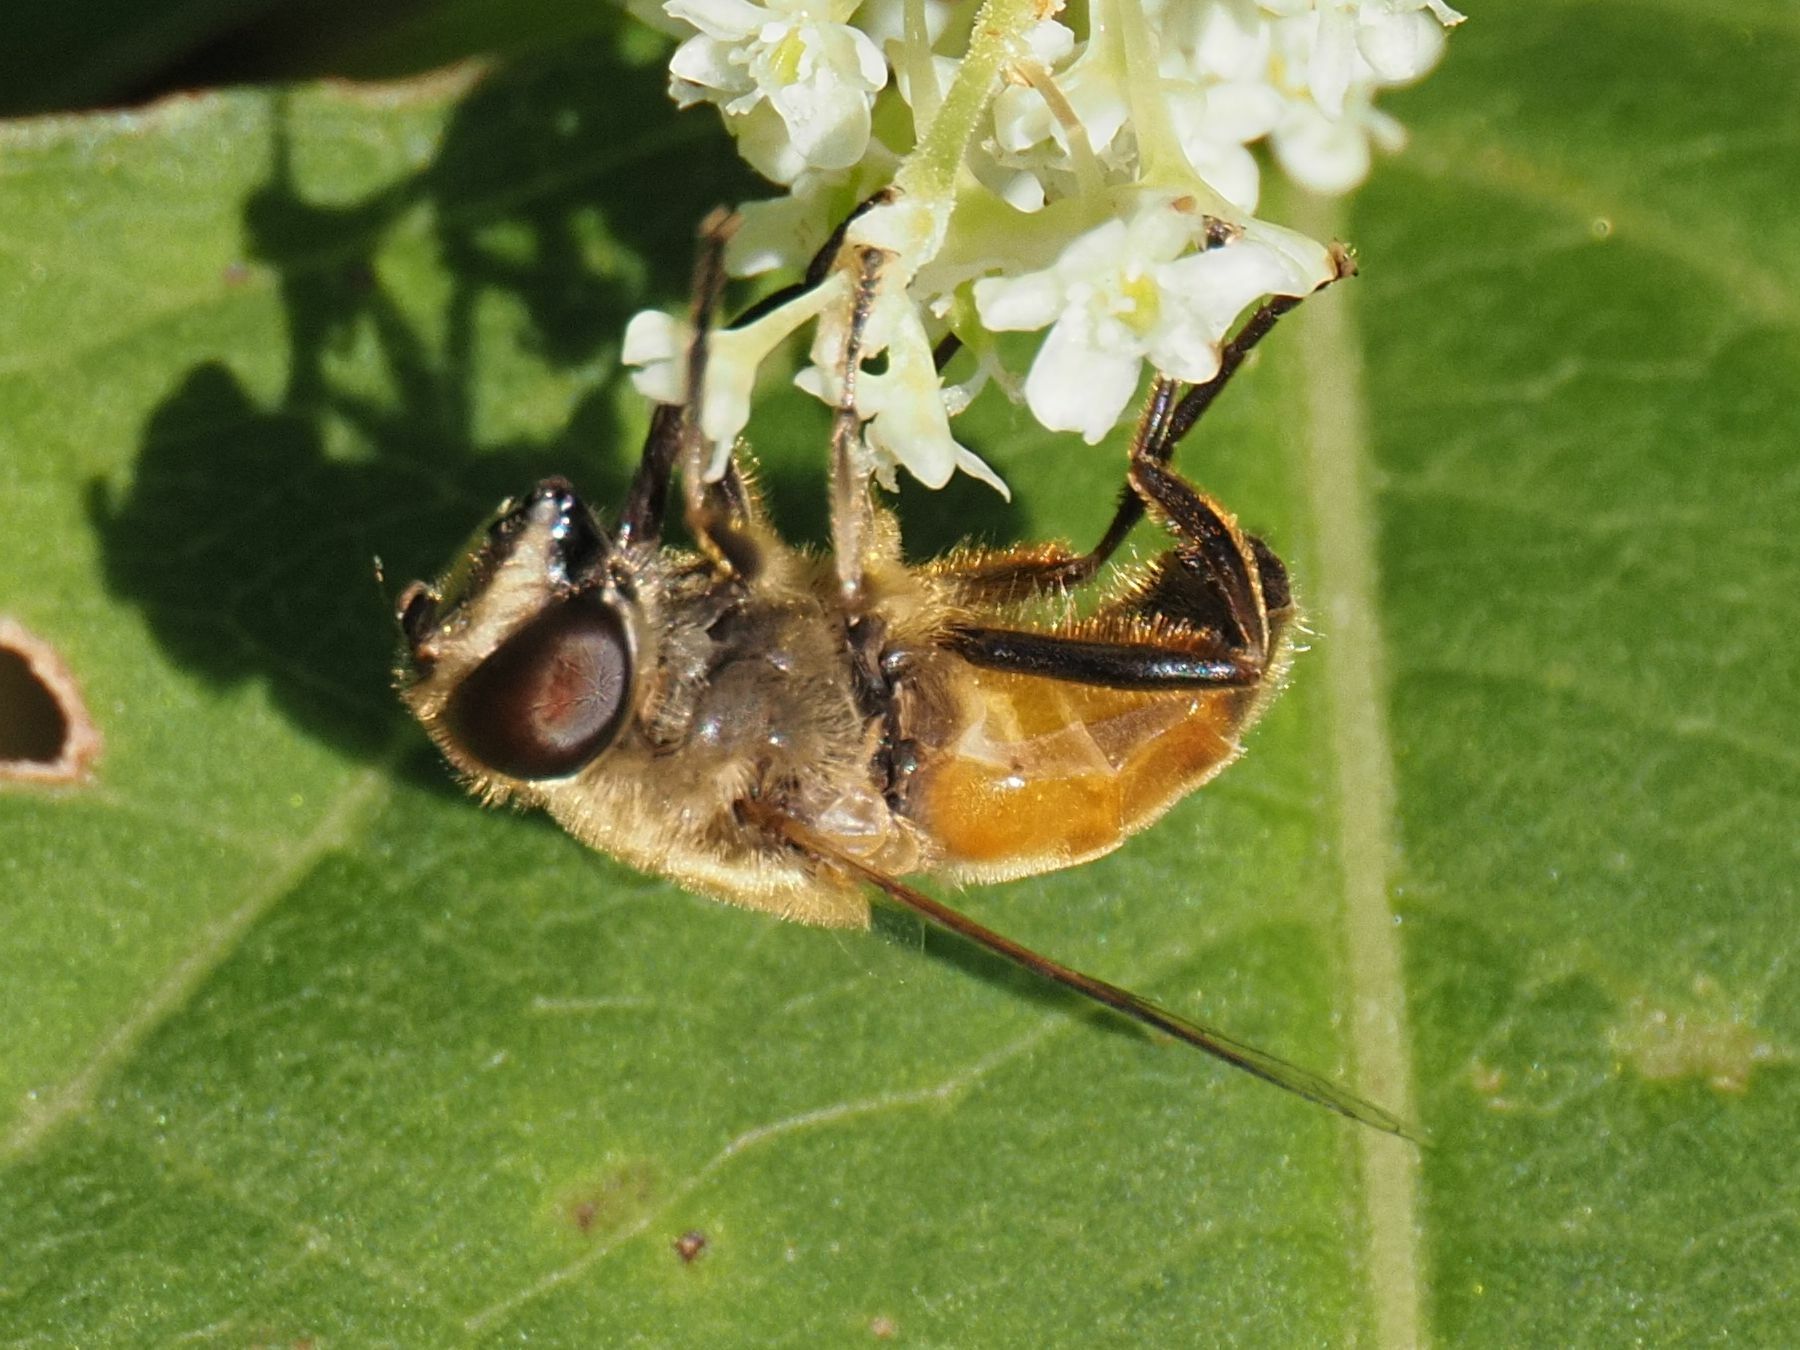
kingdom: Animalia
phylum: Arthropoda
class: Insecta
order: Diptera
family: Syrphidae
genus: Eristalis
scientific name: Eristalis tenax
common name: Drone fly
